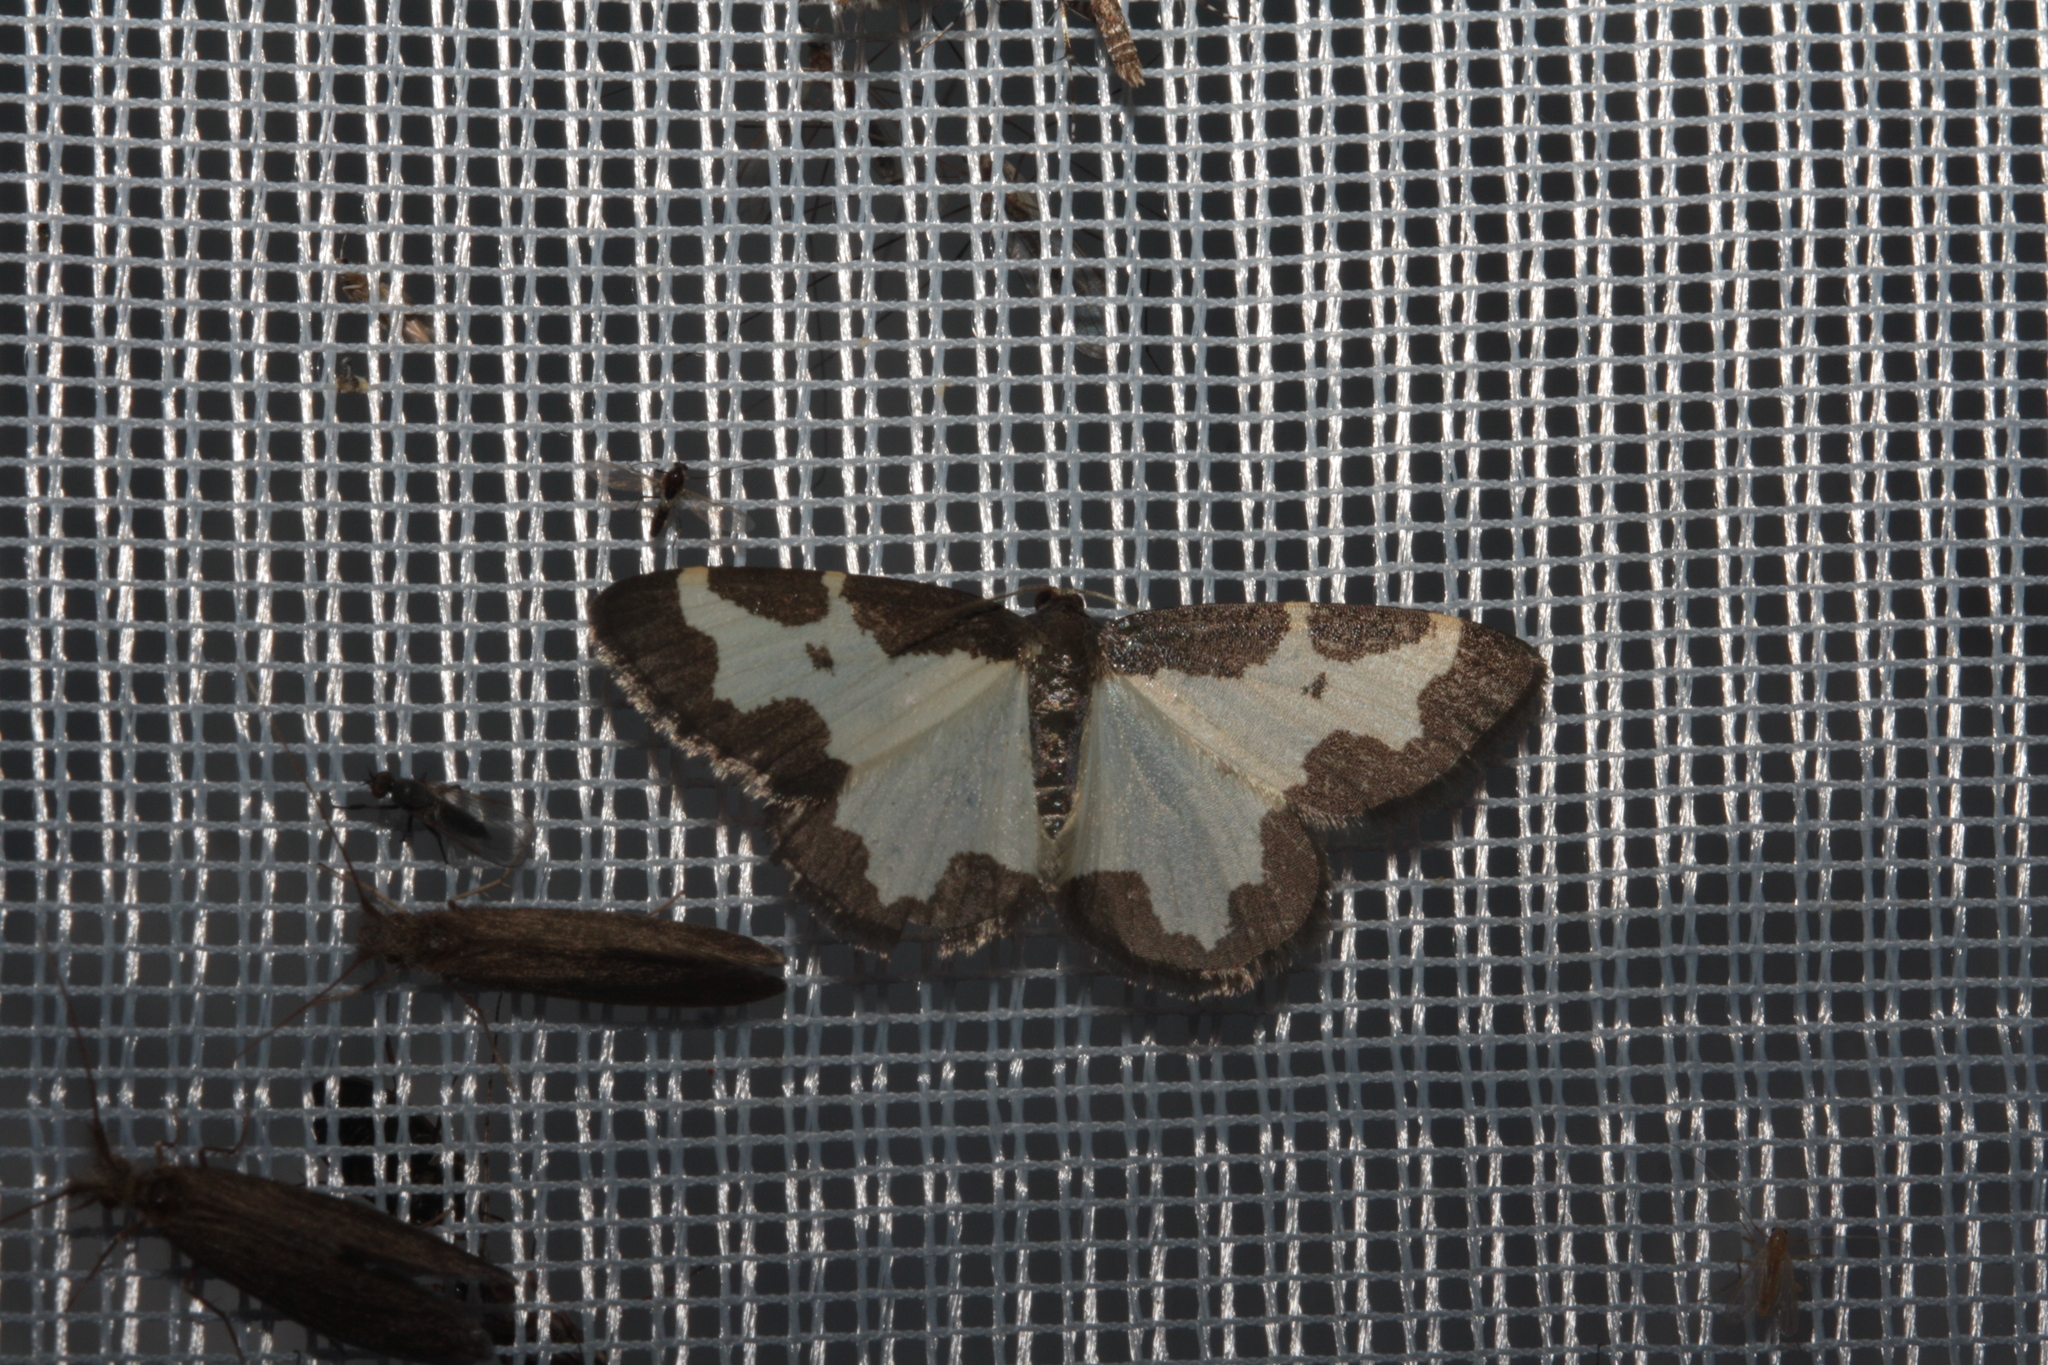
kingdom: Animalia
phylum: Arthropoda
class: Insecta
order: Lepidoptera
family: Geometridae
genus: Lomaspilis
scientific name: Lomaspilis marginata
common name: Clouded border
